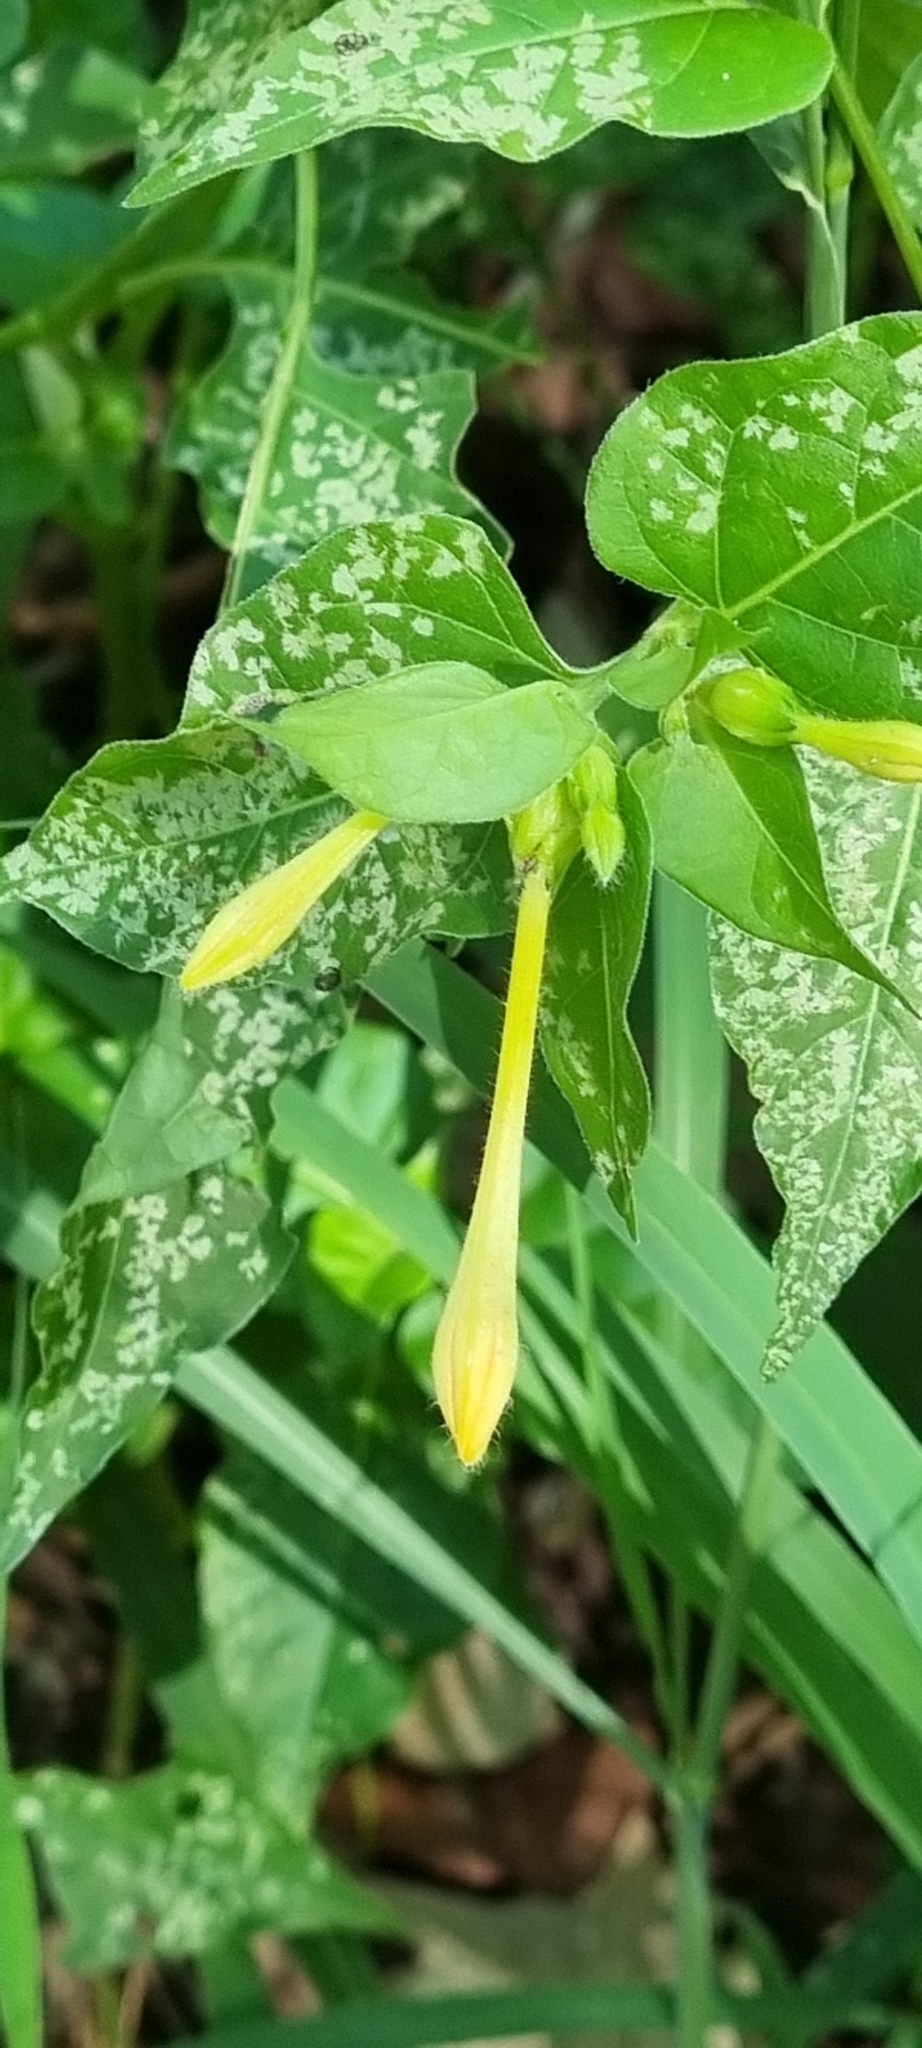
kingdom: Plantae
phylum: Tracheophyta
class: Magnoliopsida
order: Caryophyllales
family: Nyctaginaceae
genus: Mirabilis
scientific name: Mirabilis jalapa
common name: Marvel-of-peru
